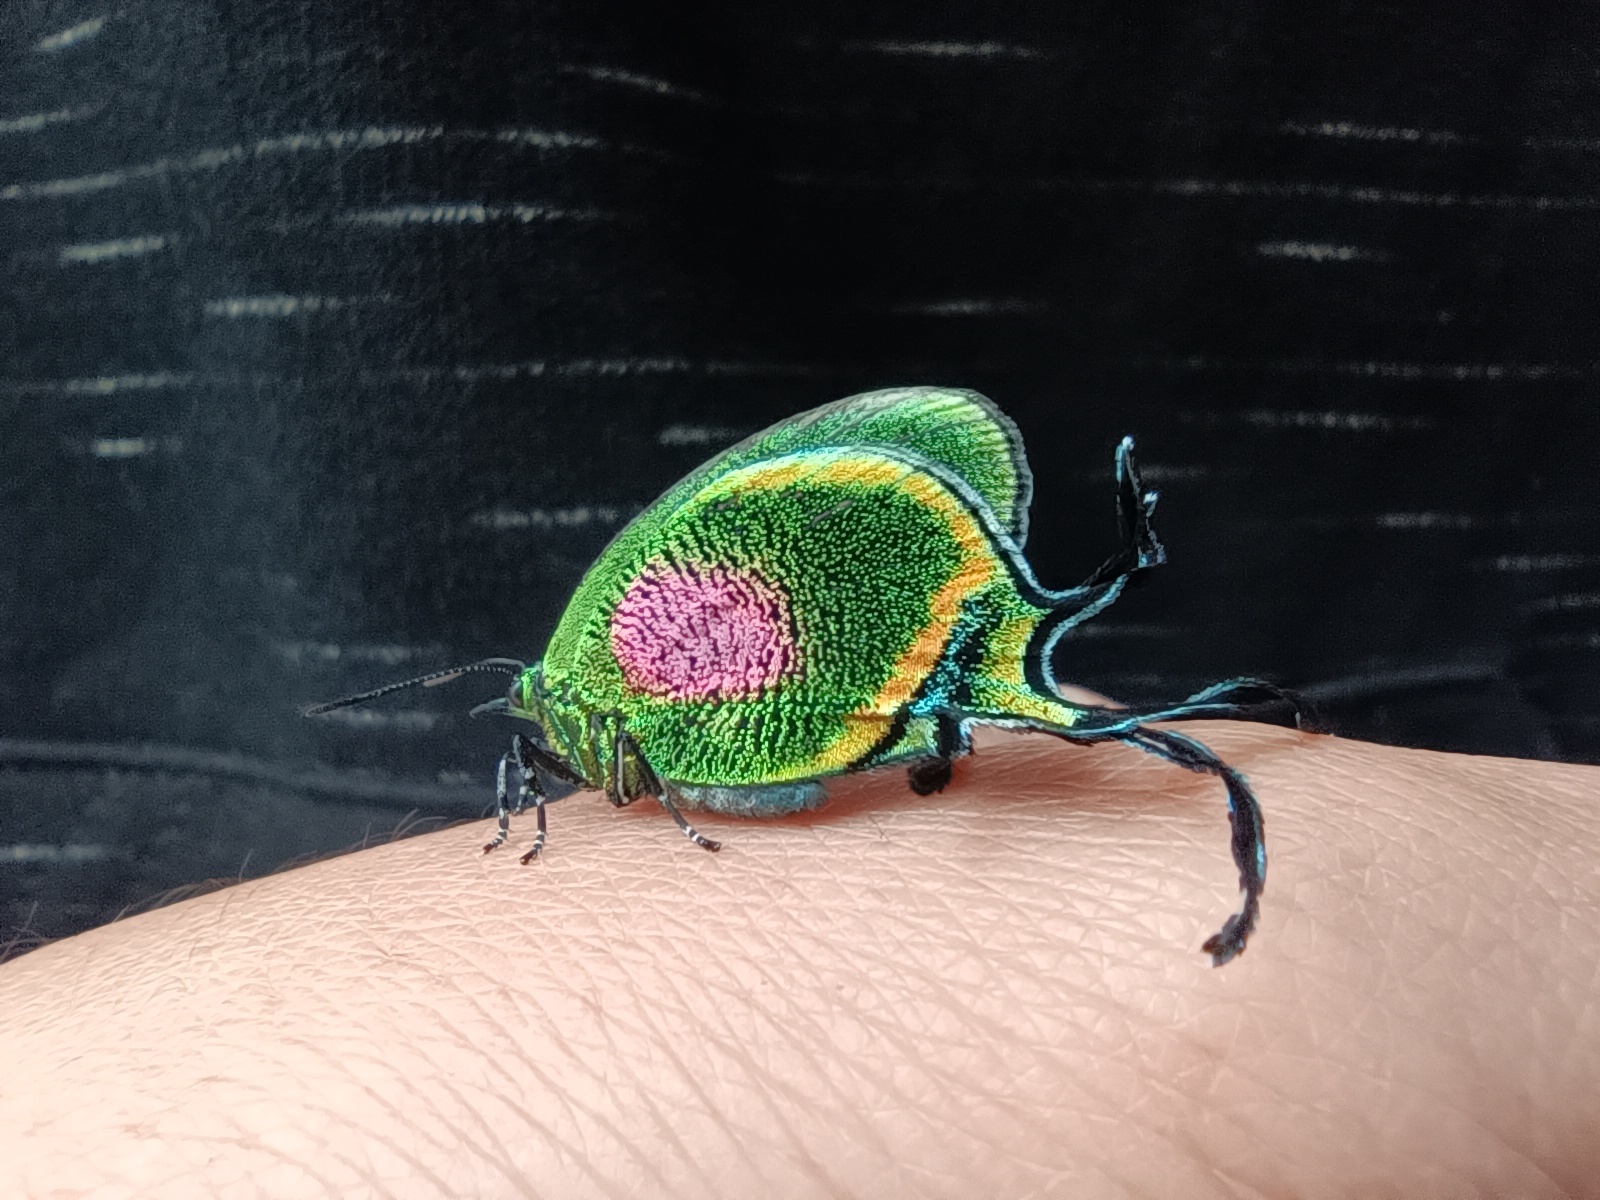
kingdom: Animalia
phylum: Arthropoda
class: Insecta
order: Lepidoptera
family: Lycaenidae
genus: Arcas
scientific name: Arcas
